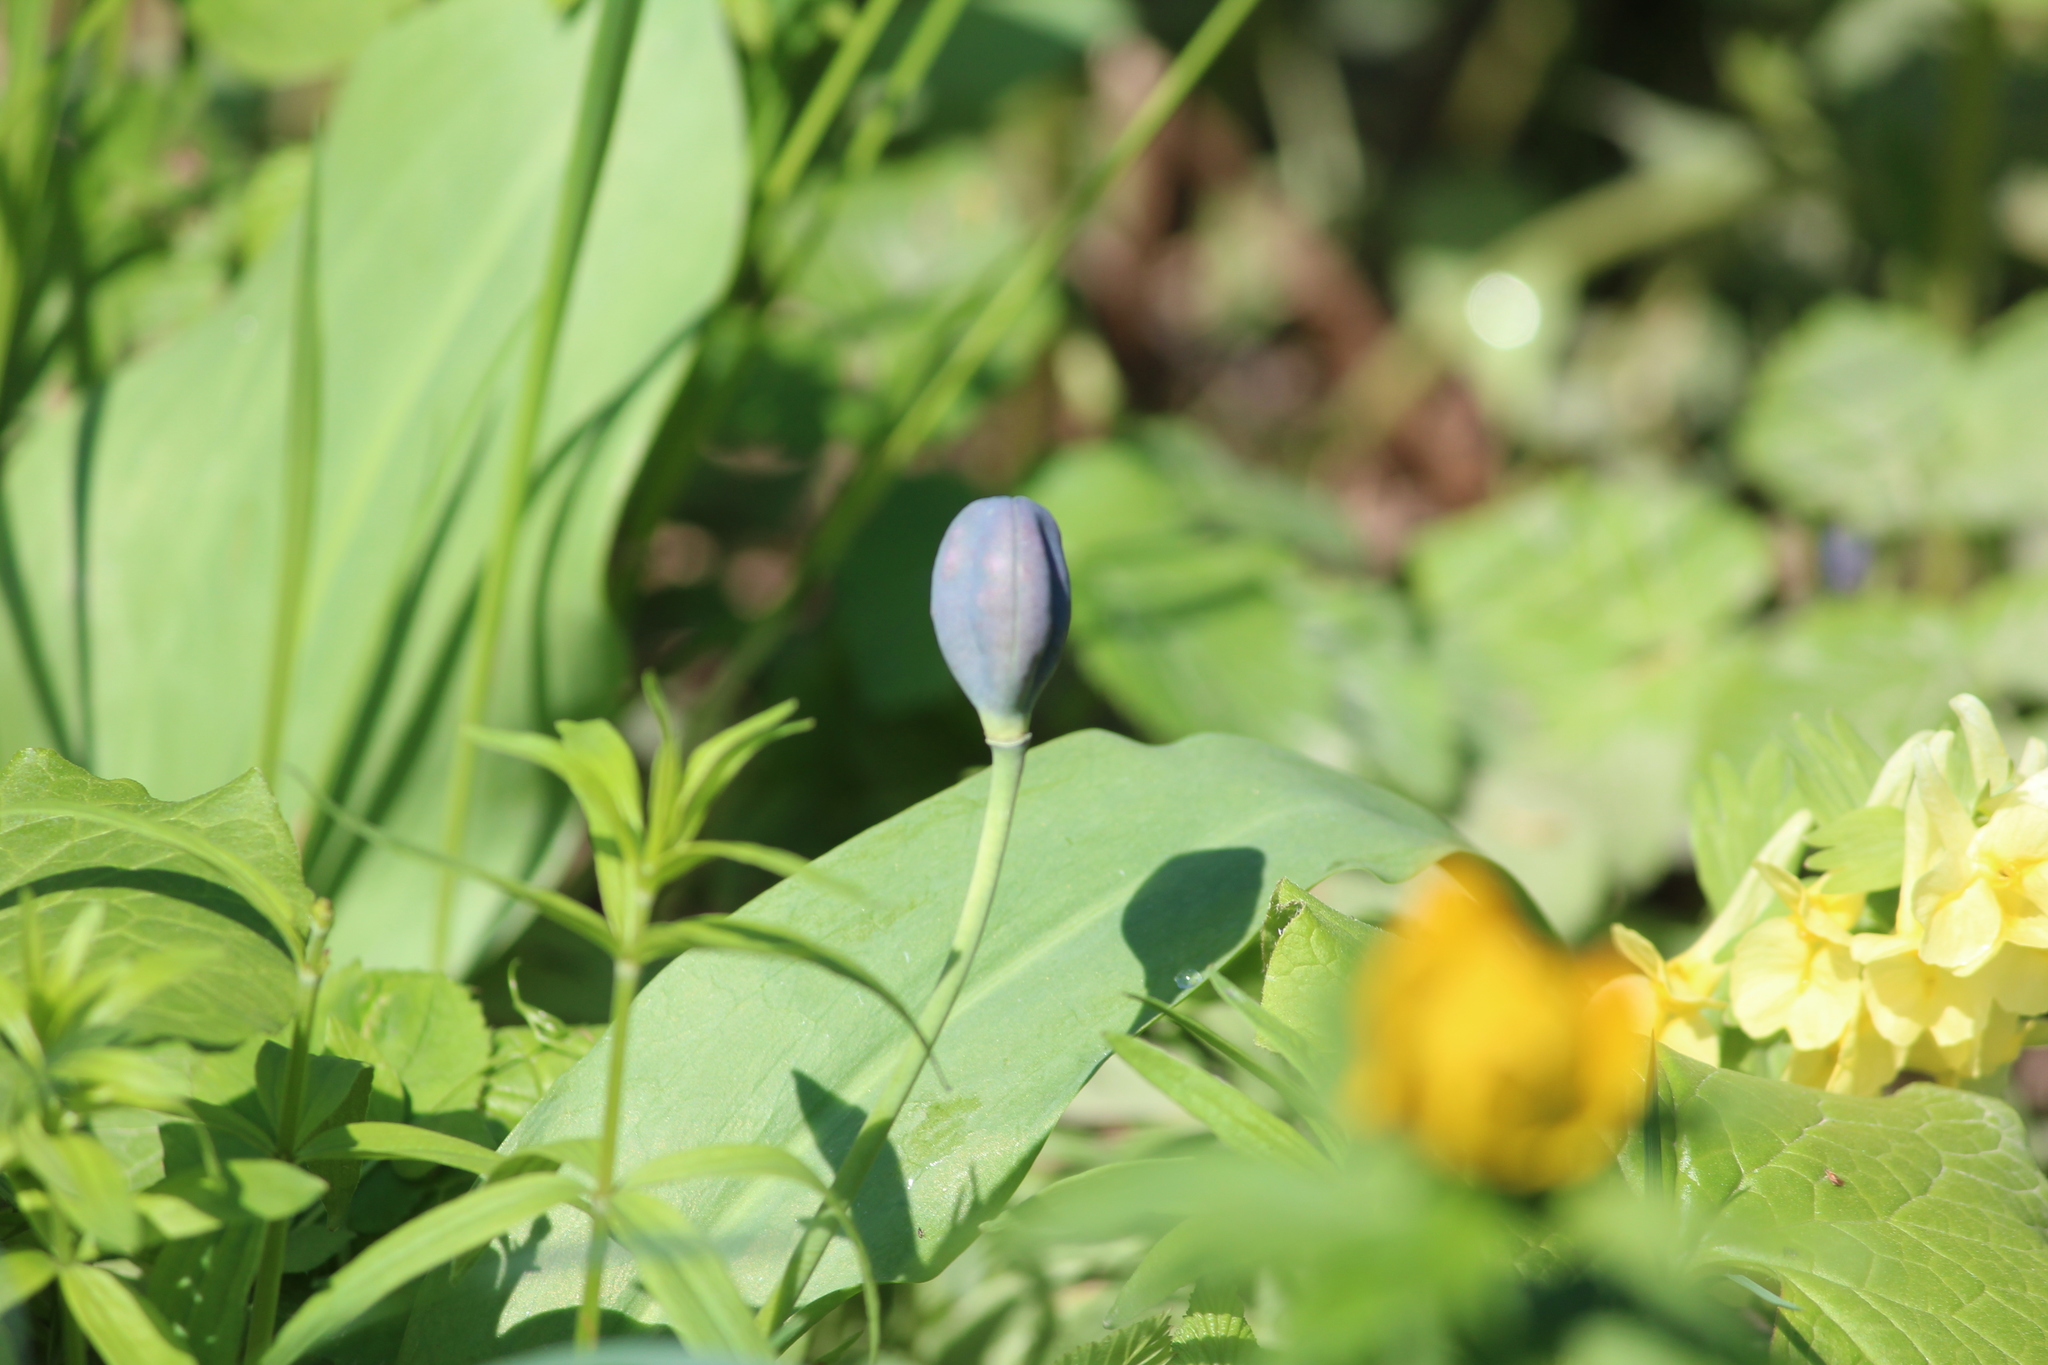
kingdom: Plantae
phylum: Tracheophyta
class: Liliopsida
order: Liliales
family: Liliaceae
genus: Erythronium
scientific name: Erythronium sibiricum
